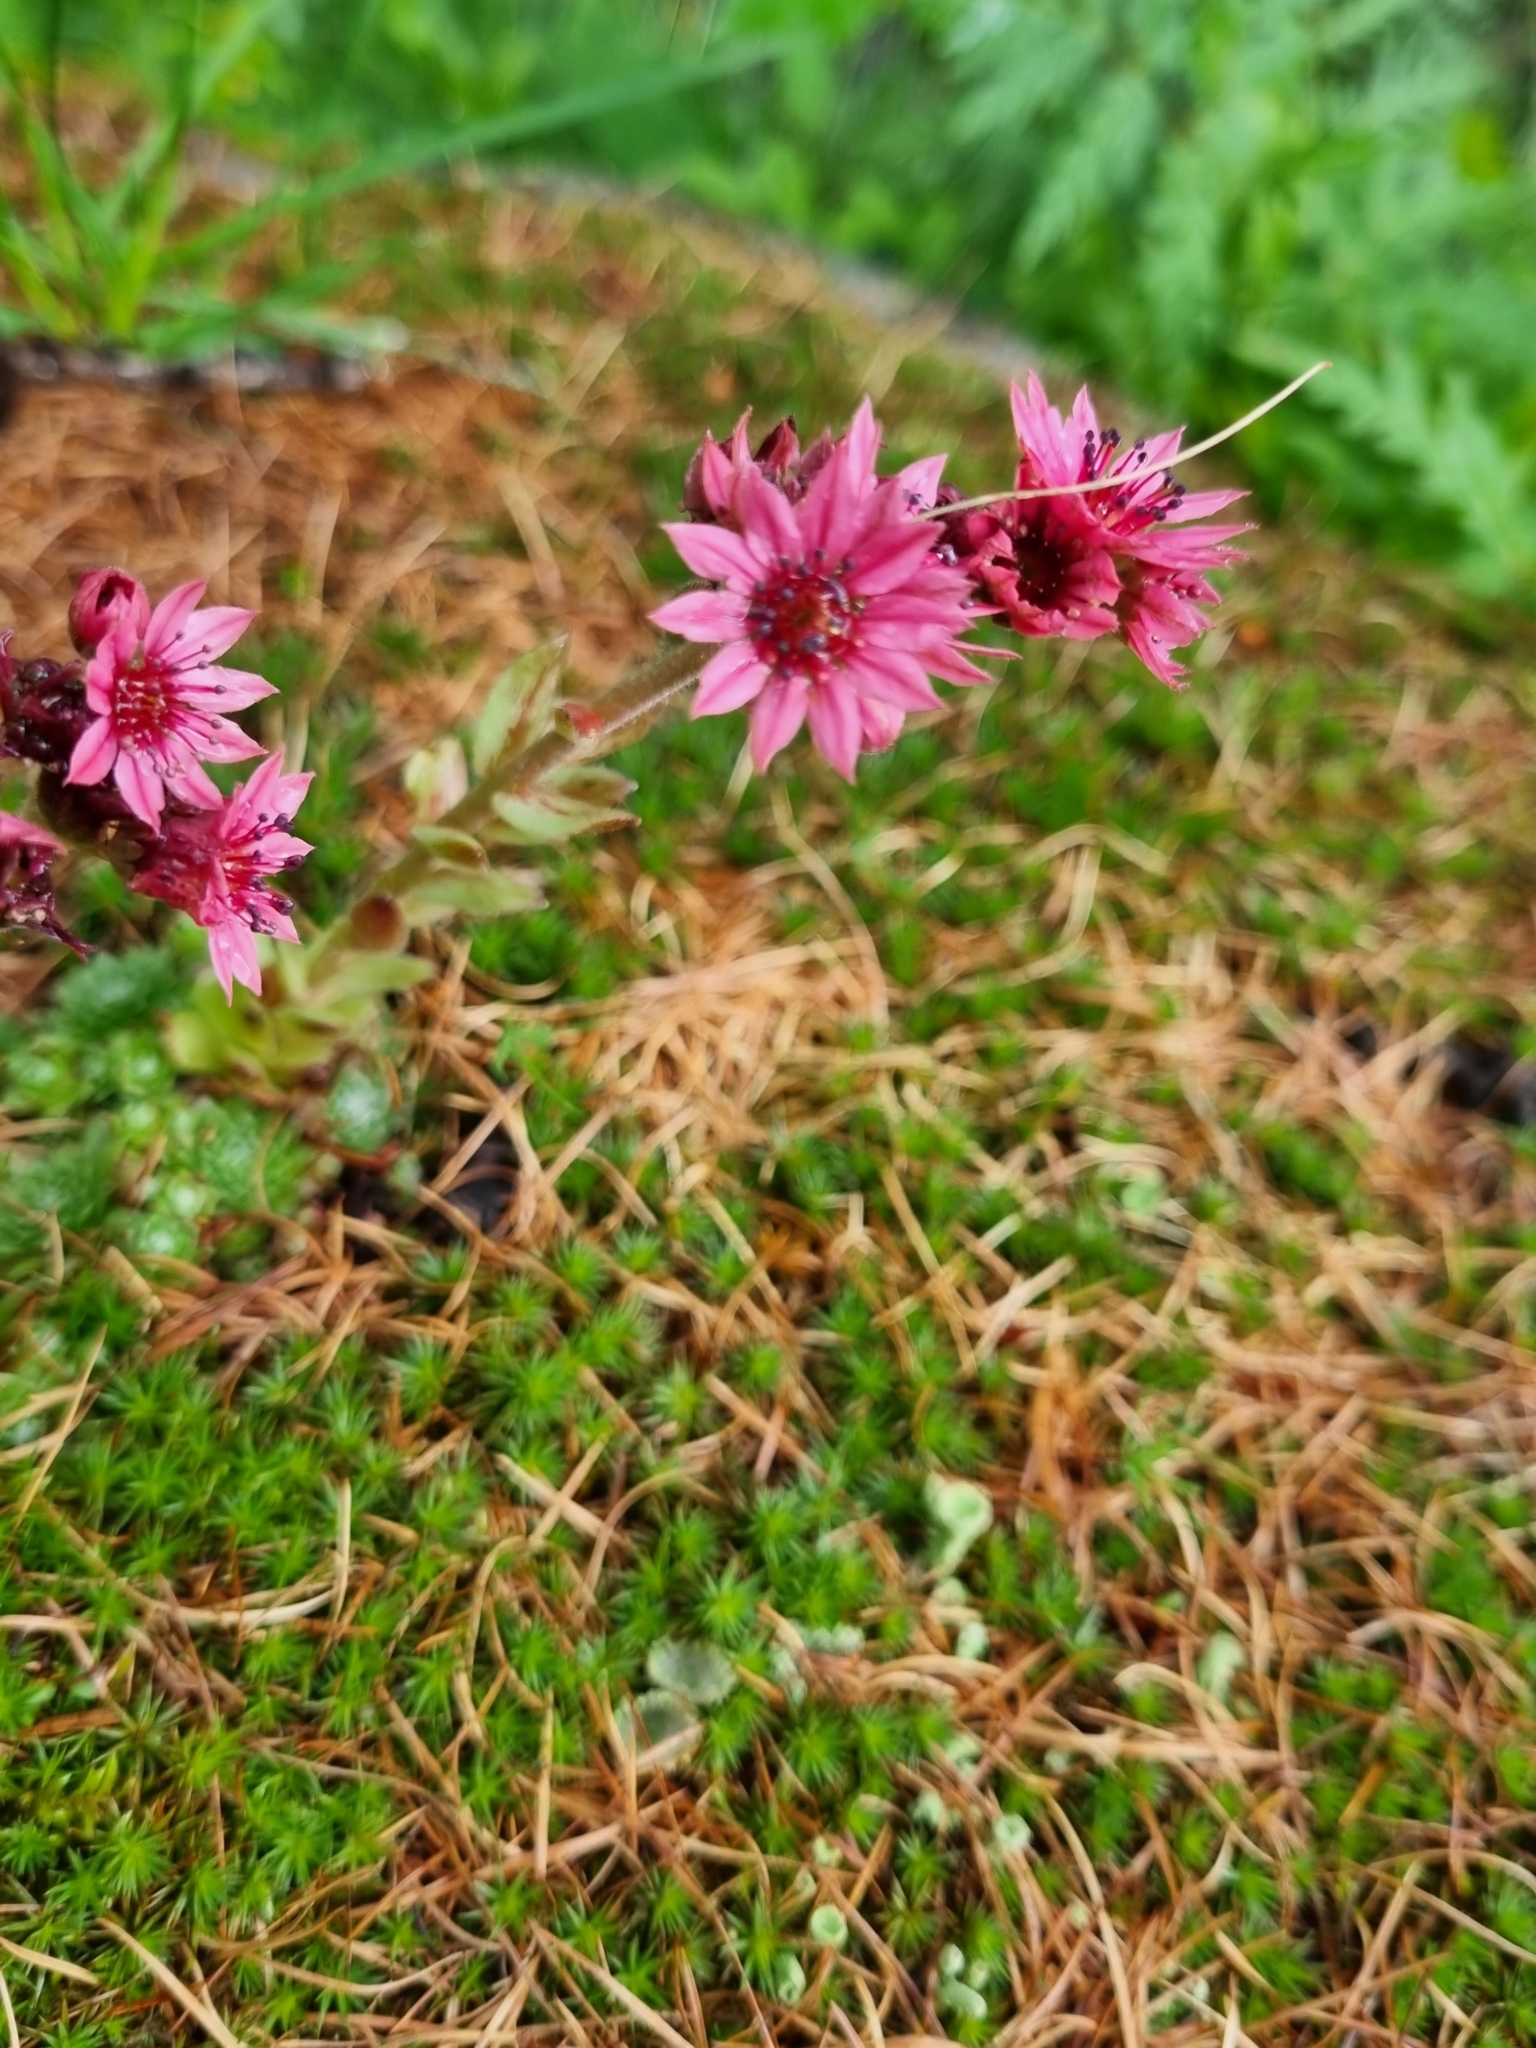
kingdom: Plantae
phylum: Tracheophyta
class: Magnoliopsida
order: Saxifragales
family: Crassulaceae
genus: Sempervivum
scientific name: Sempervivum arachnoideum
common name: Cobweb house-leek
